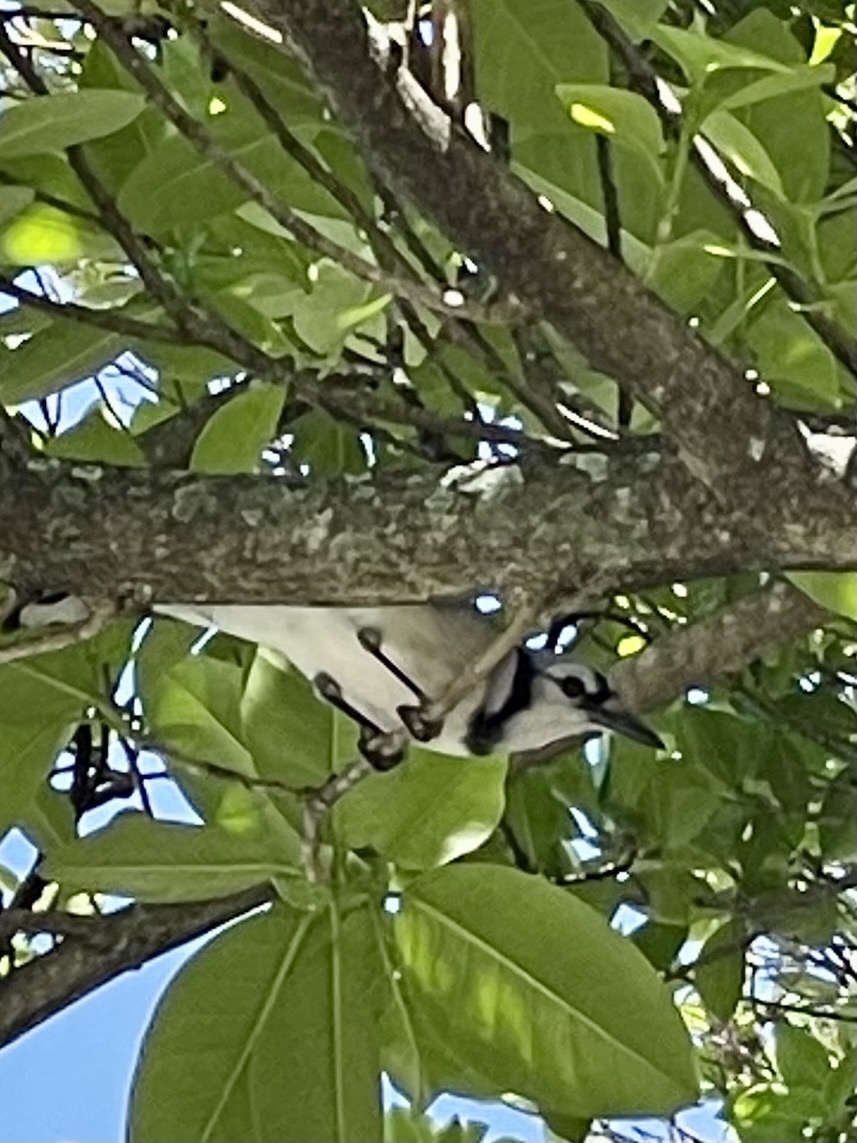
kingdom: Animalia
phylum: Chordata
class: Aves
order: Passeriformes
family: Corvidae
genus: Cyanocitta
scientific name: Cyanocitta cristata
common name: Blue jay
